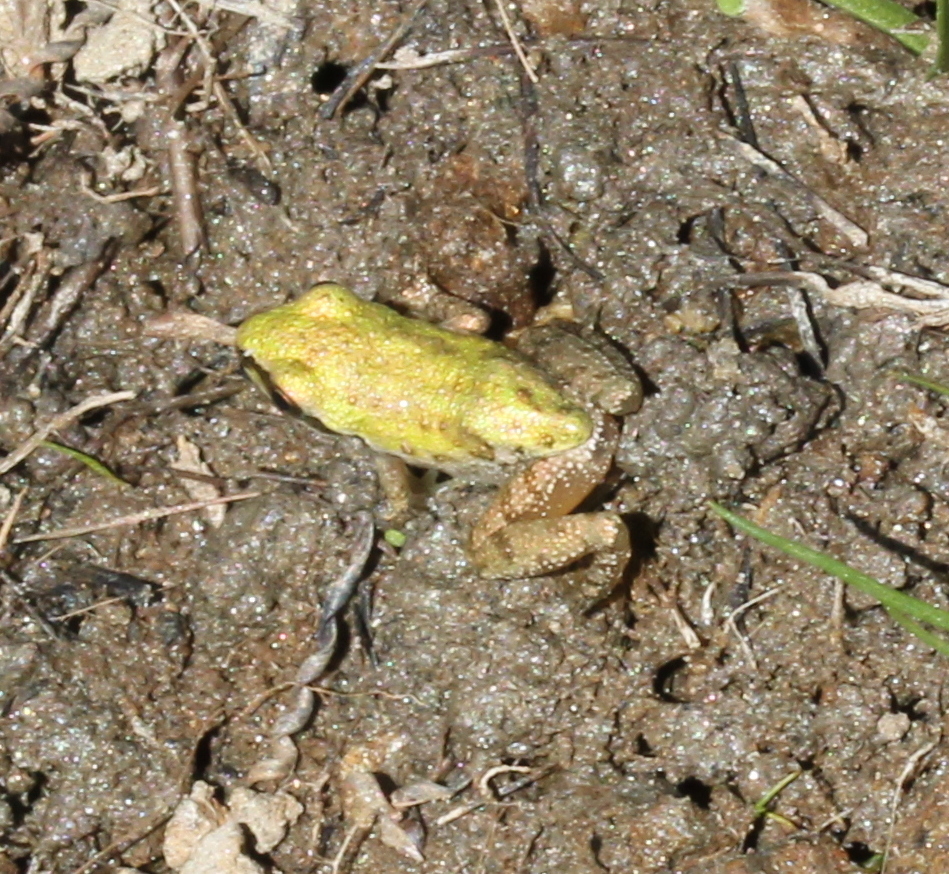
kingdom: Animalia
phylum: Chordata
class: Amphibia
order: Anura
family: Hylidae
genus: Pseudacris
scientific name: Pseudacris regilla
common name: Pacific chorus frog
